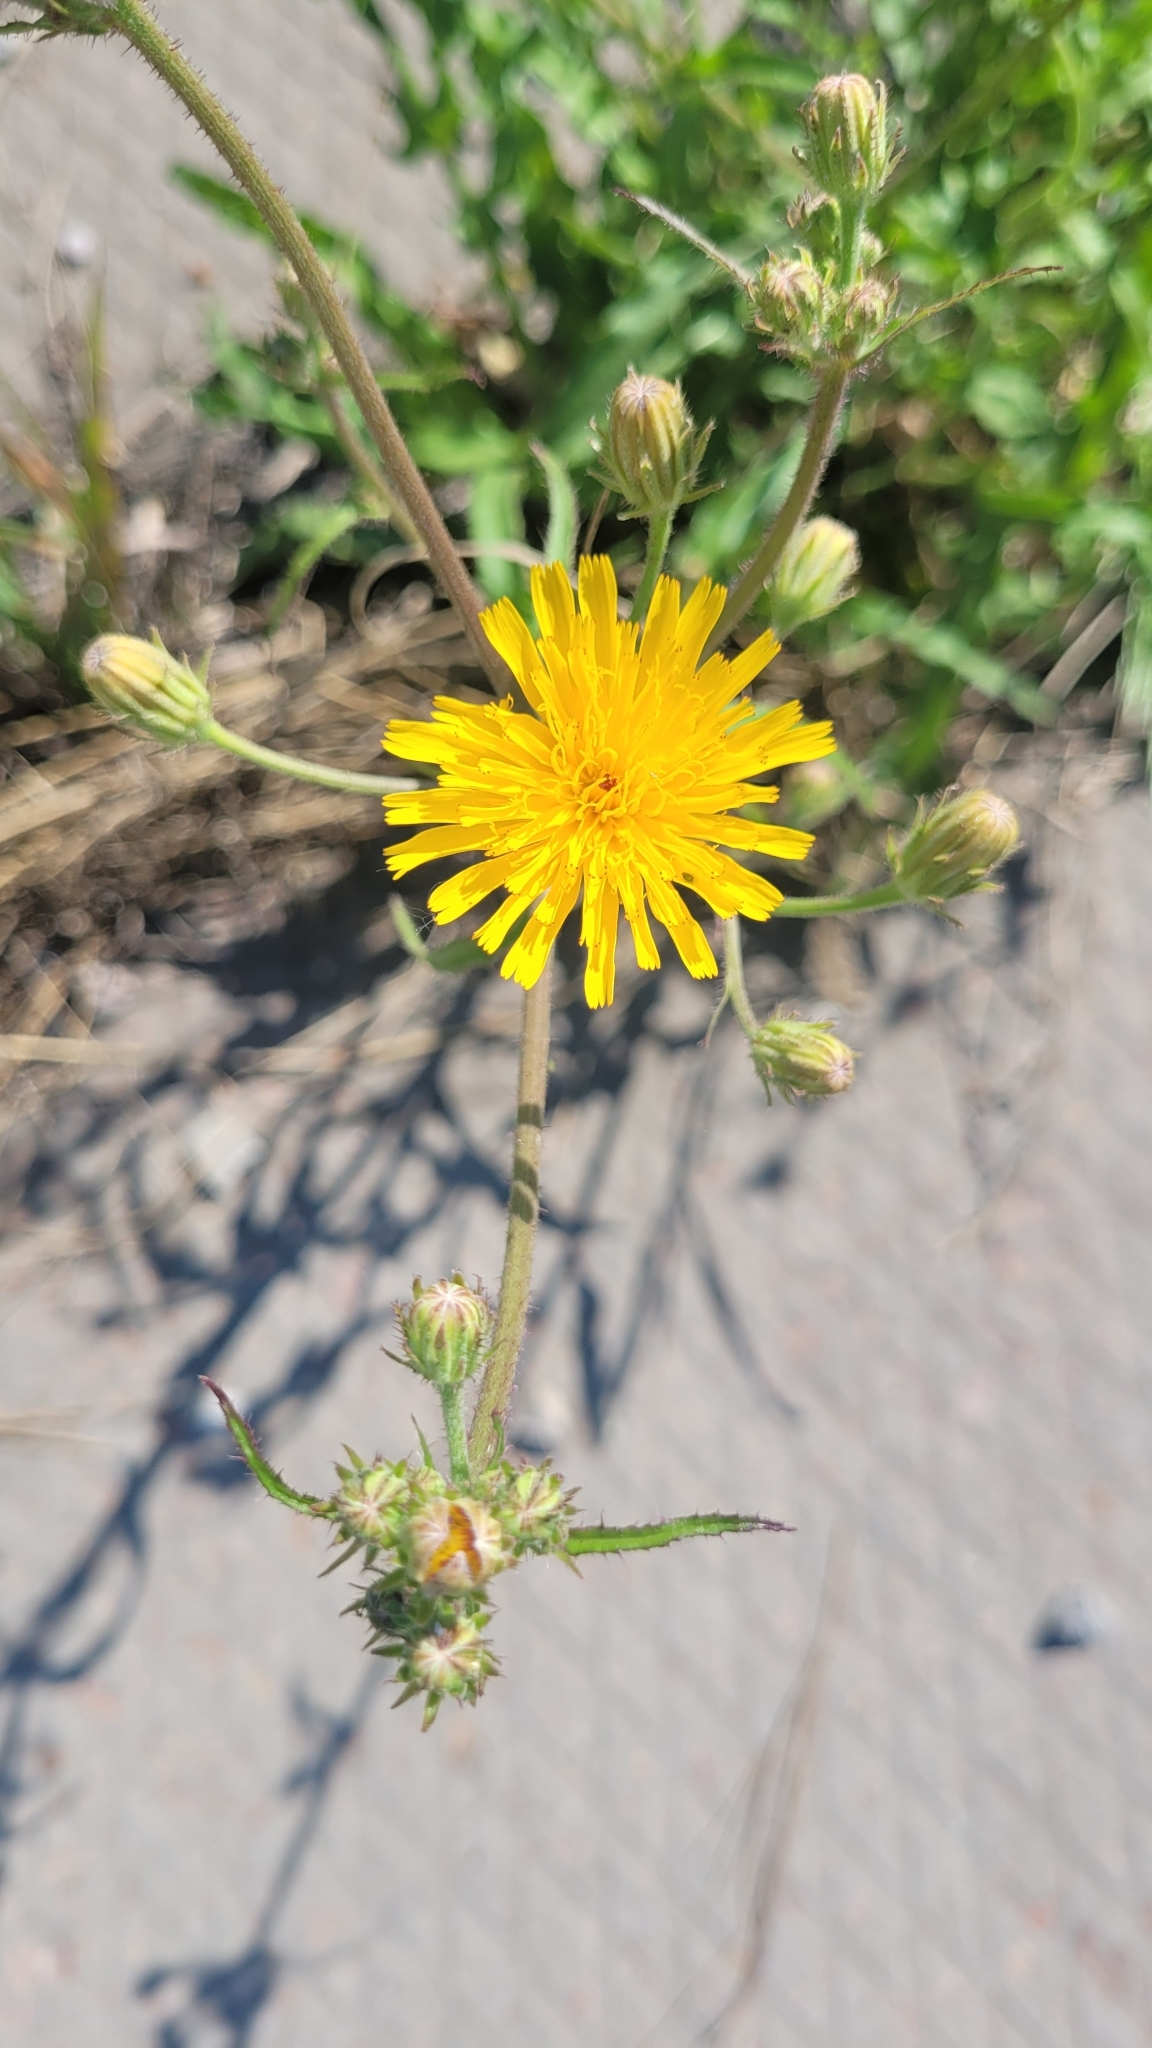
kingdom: Plantae
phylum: Tracheophyta
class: Magnoliopsida
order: Asterales
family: Asteraceae
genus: Picris
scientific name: Picris hieracioides
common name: Hawkweed oxtongue
